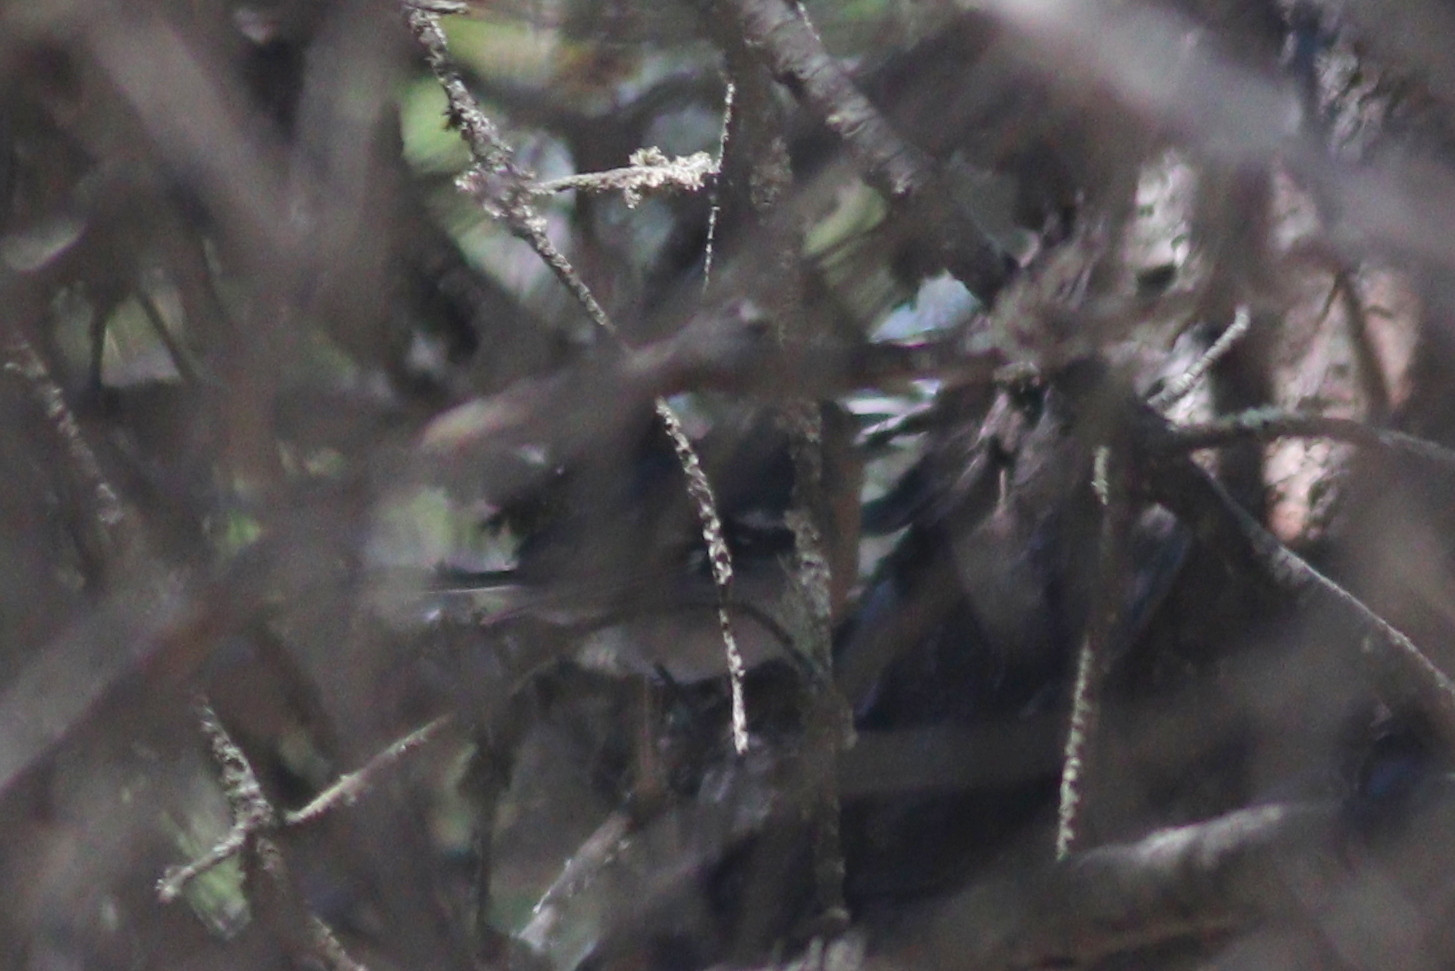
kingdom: Animalia
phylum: Chordata
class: Aves
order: Passeriformes
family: Fringillidae
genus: Fringilla
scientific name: Fringilla canariensis
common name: Canary islands chaffinch
